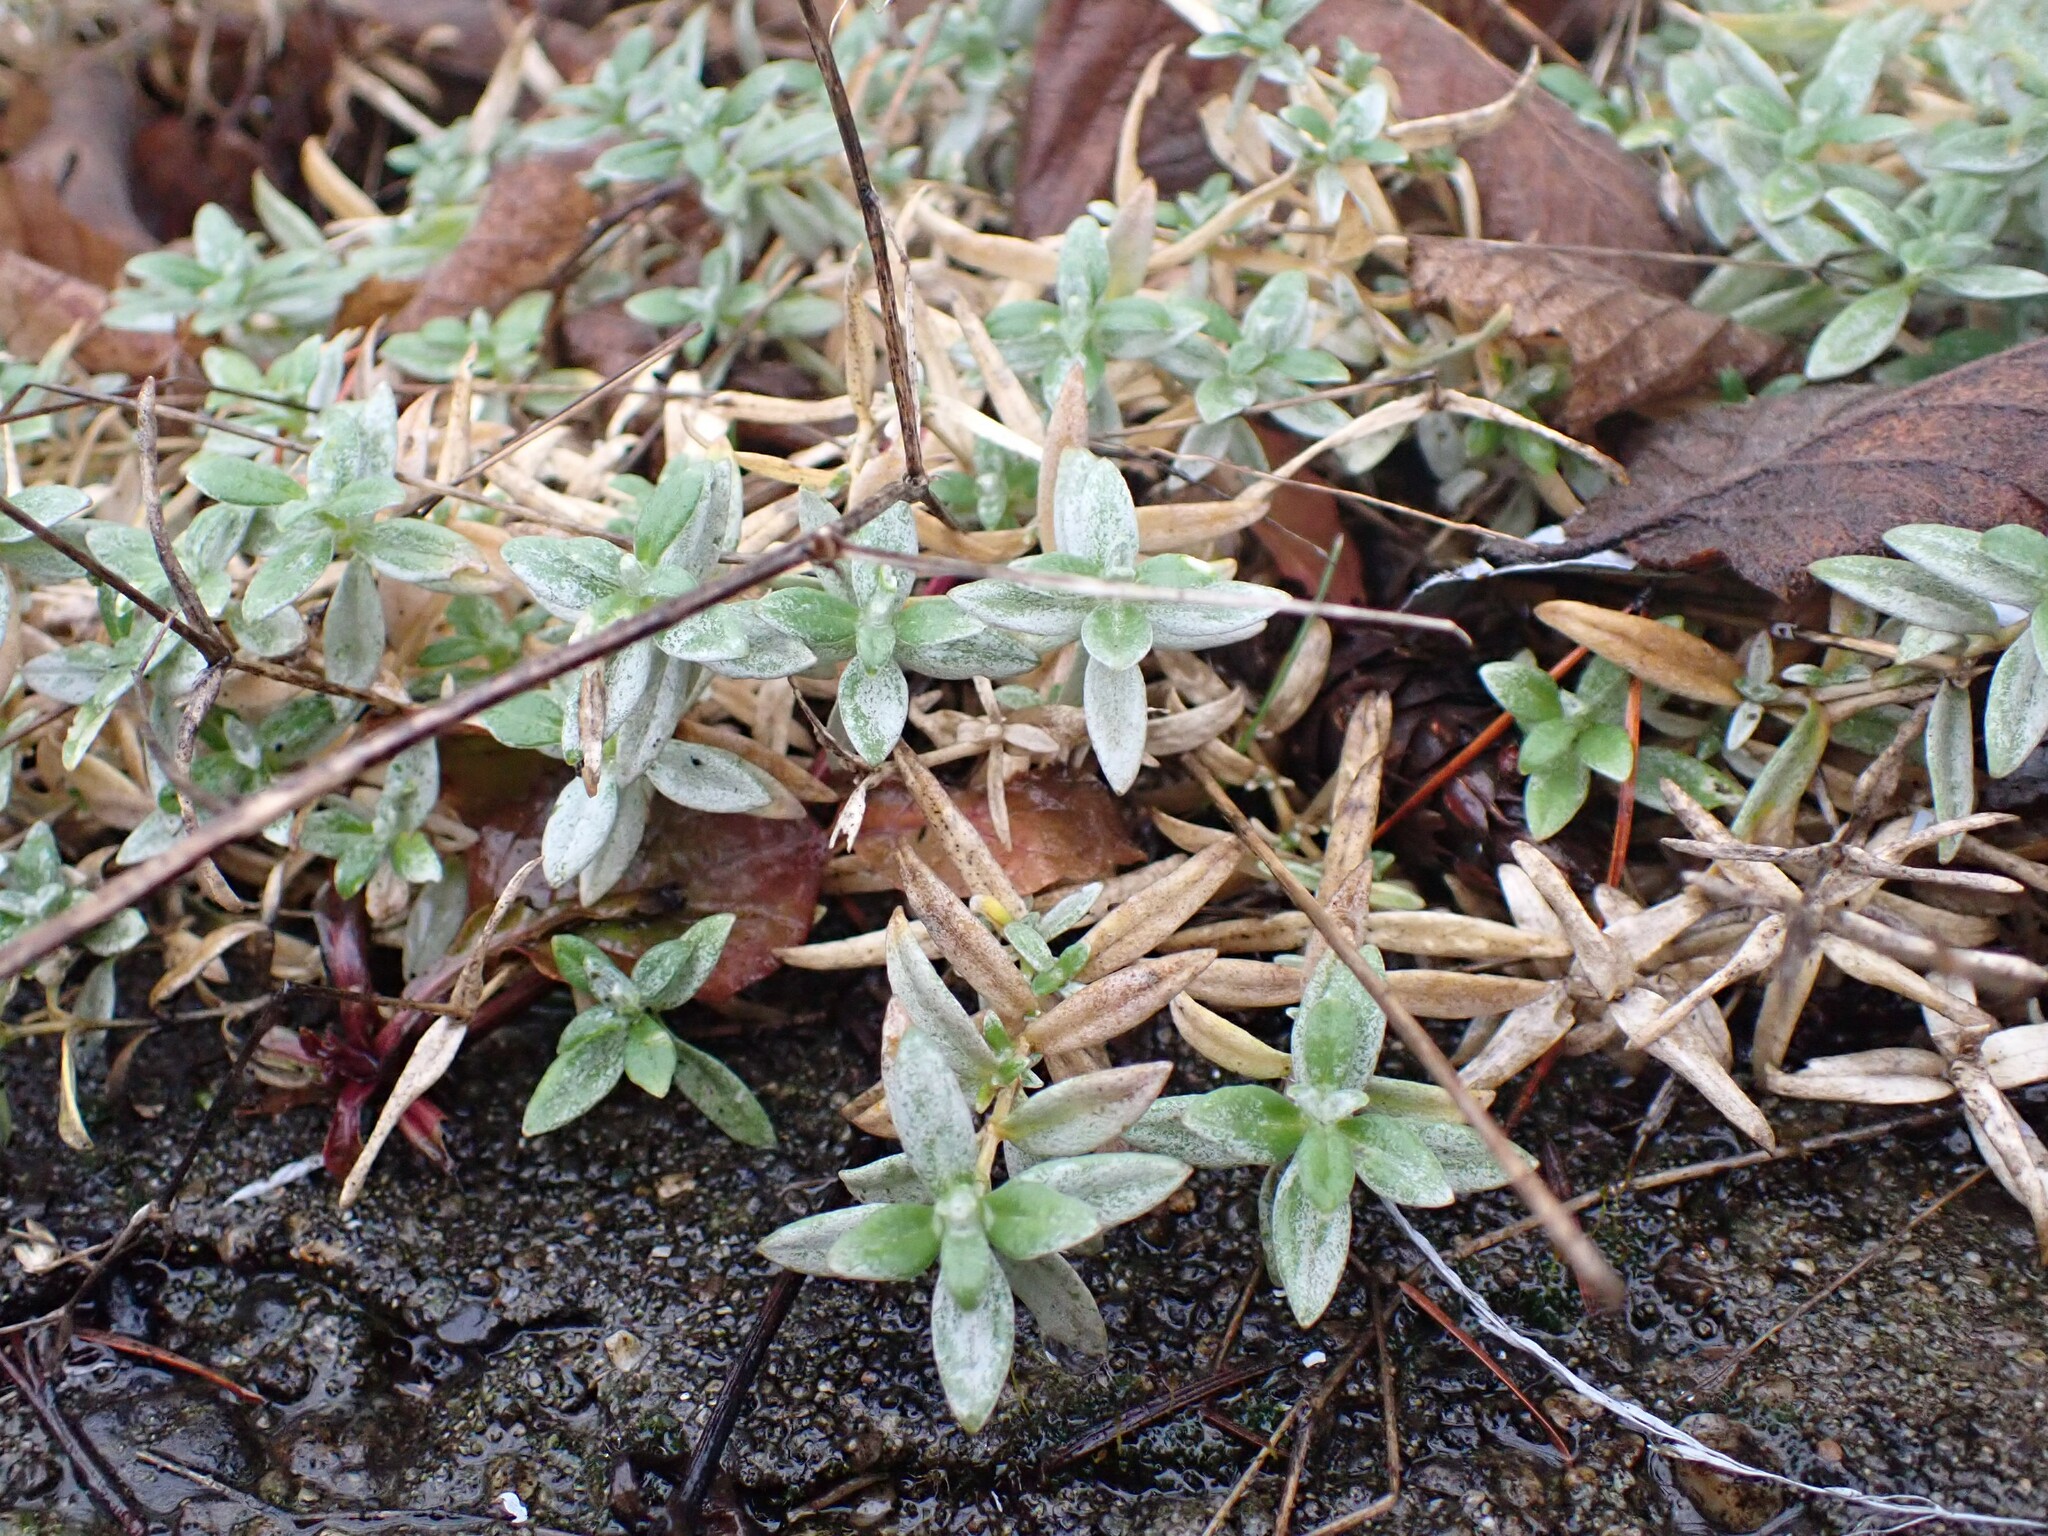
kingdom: Plantae
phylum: Tracheophyta
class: Magnoliopsida
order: Caryophyllales
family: Caryophyllaceae
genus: Cerastium
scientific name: Cerastium tomentosum
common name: Snow-in-summer
